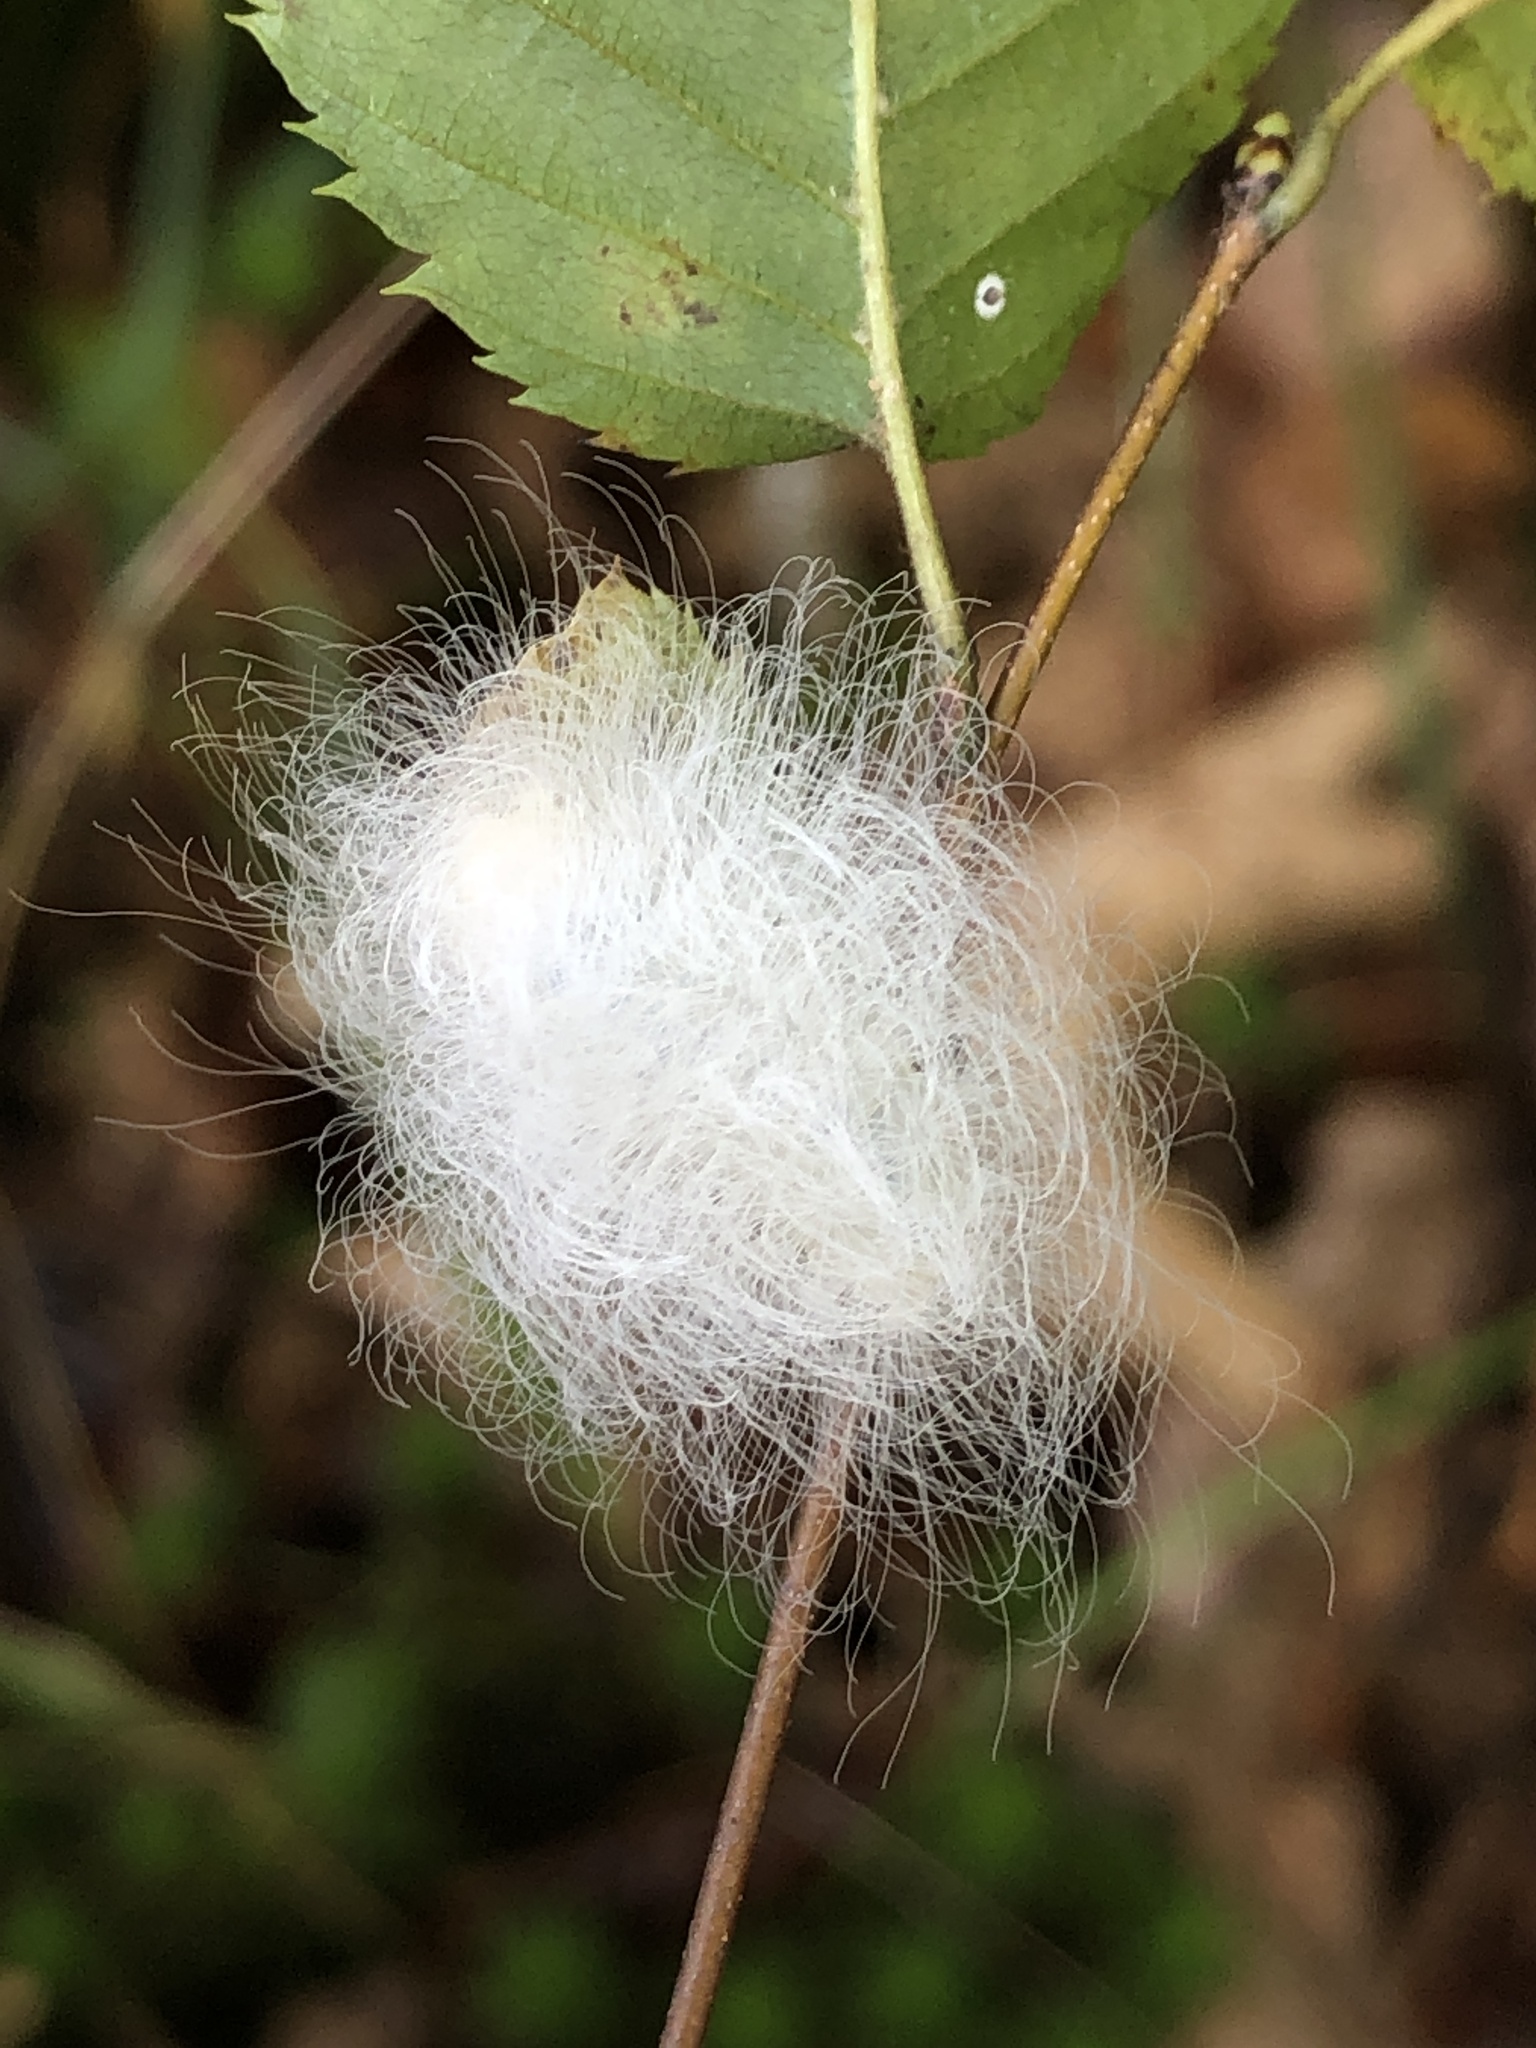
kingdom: Animalia
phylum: Arthropoda
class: Insecta
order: Lepidoptera
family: Megalopygidae
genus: Megalopyge
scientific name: Megalopyge crispata
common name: Black-waved flannel moth
